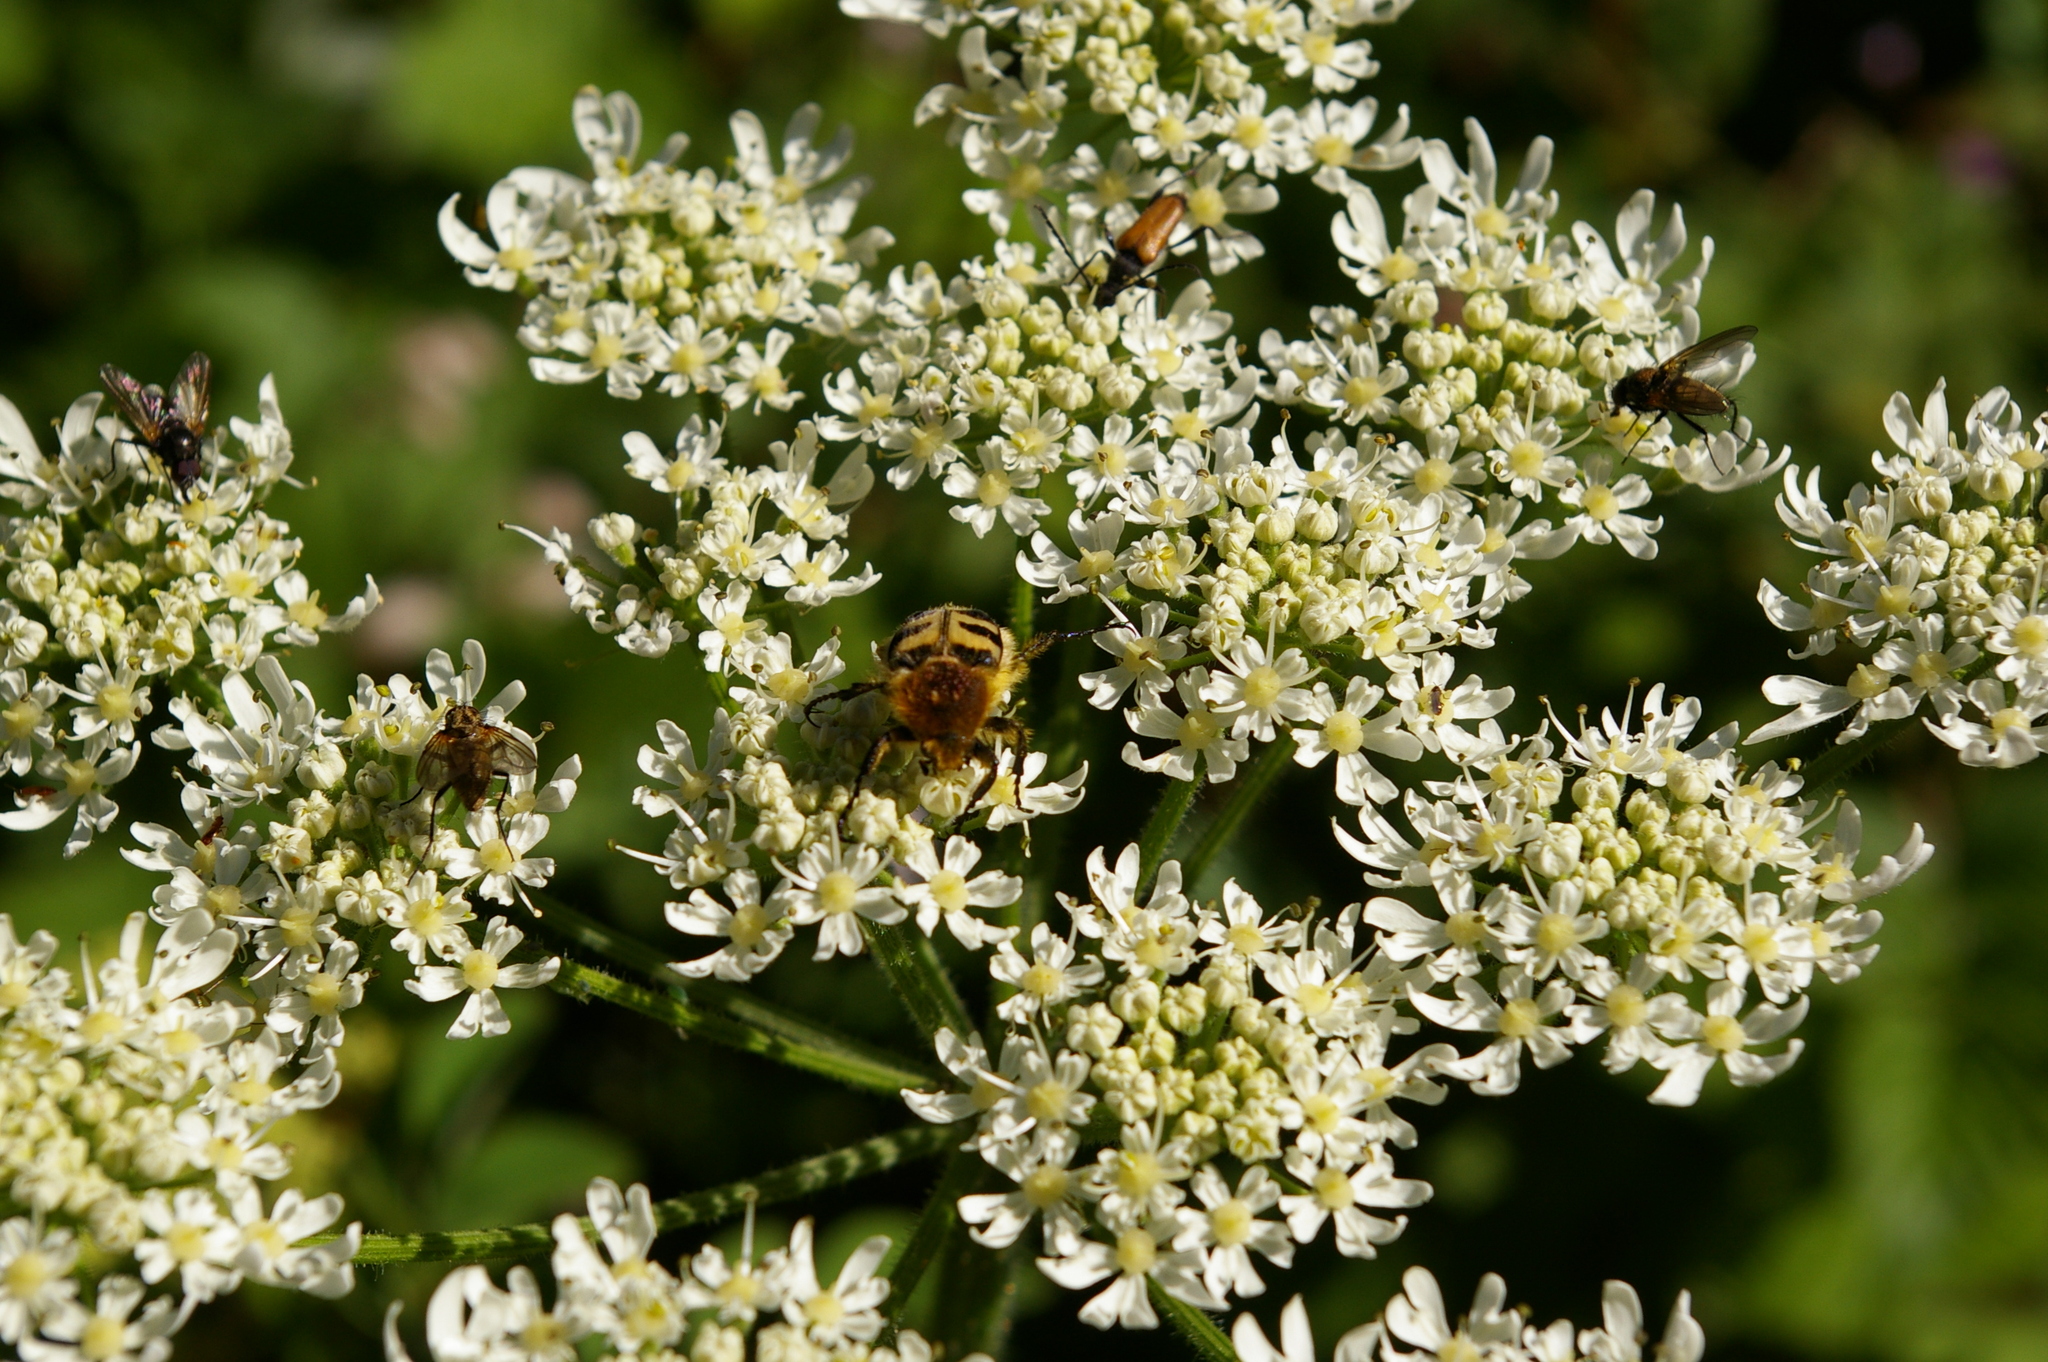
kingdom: Animalia
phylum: Arthropoda
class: Insecta
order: Coleoptera
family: Scarabaeidae
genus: Trichius
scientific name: Trichius fasciatus
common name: Bee beetle
